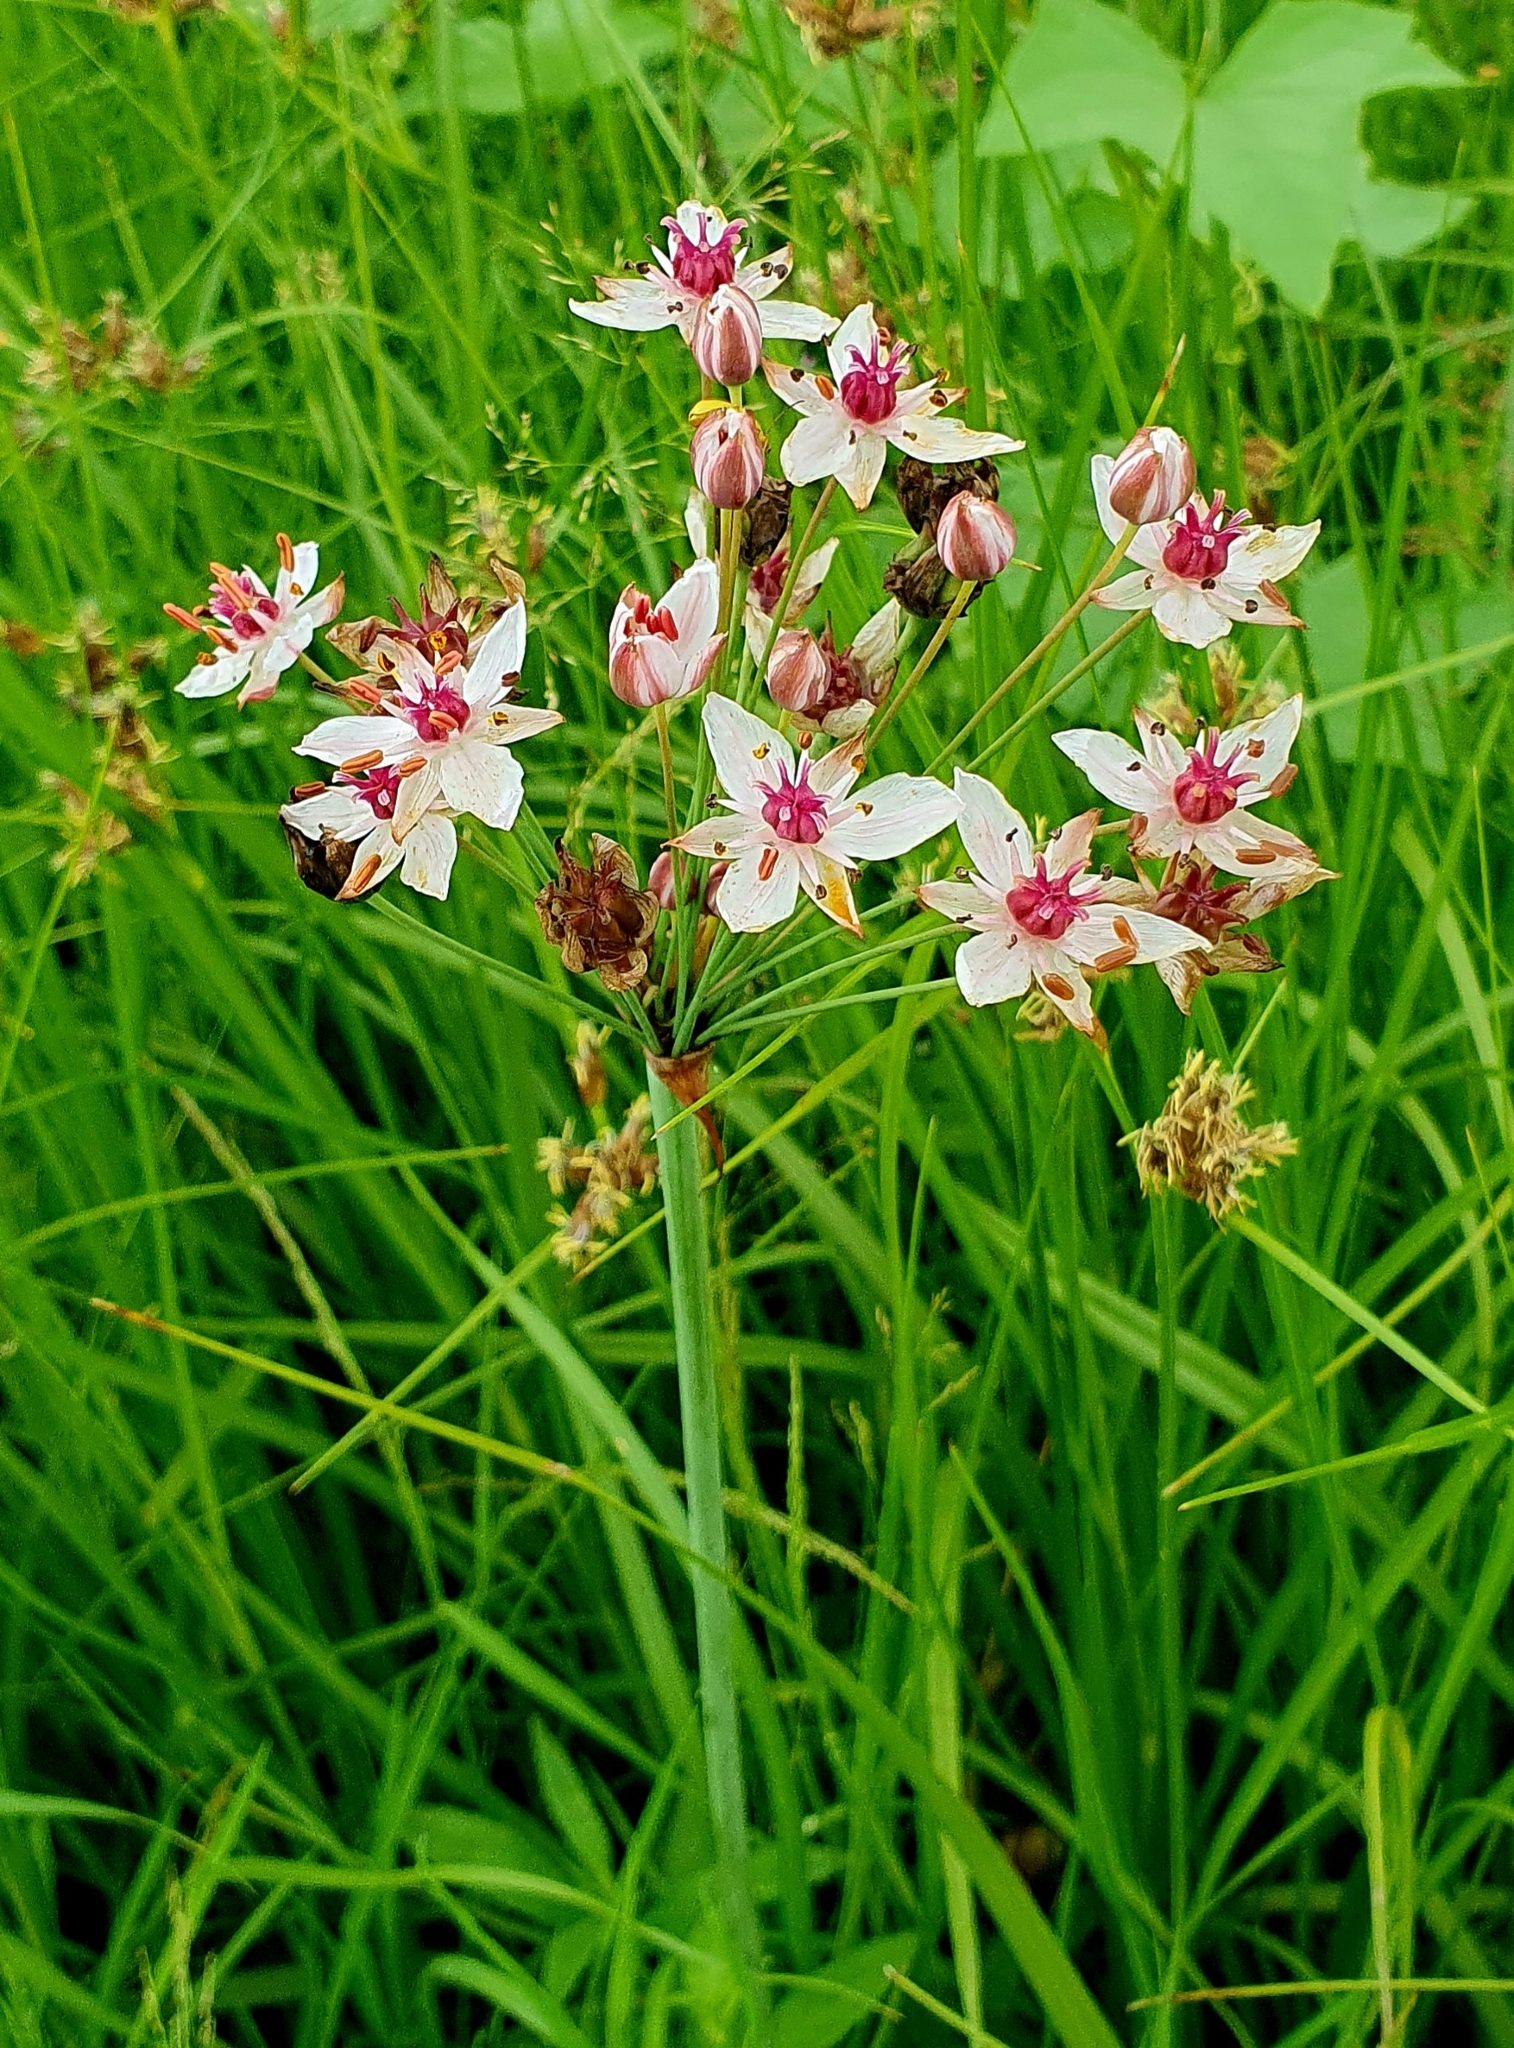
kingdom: Plantae
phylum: Tracheophyta
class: Liliopsida
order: Alismatales
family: Butomaceae
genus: Butomus
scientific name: Butomus umbellatus
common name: Flowering-rush
